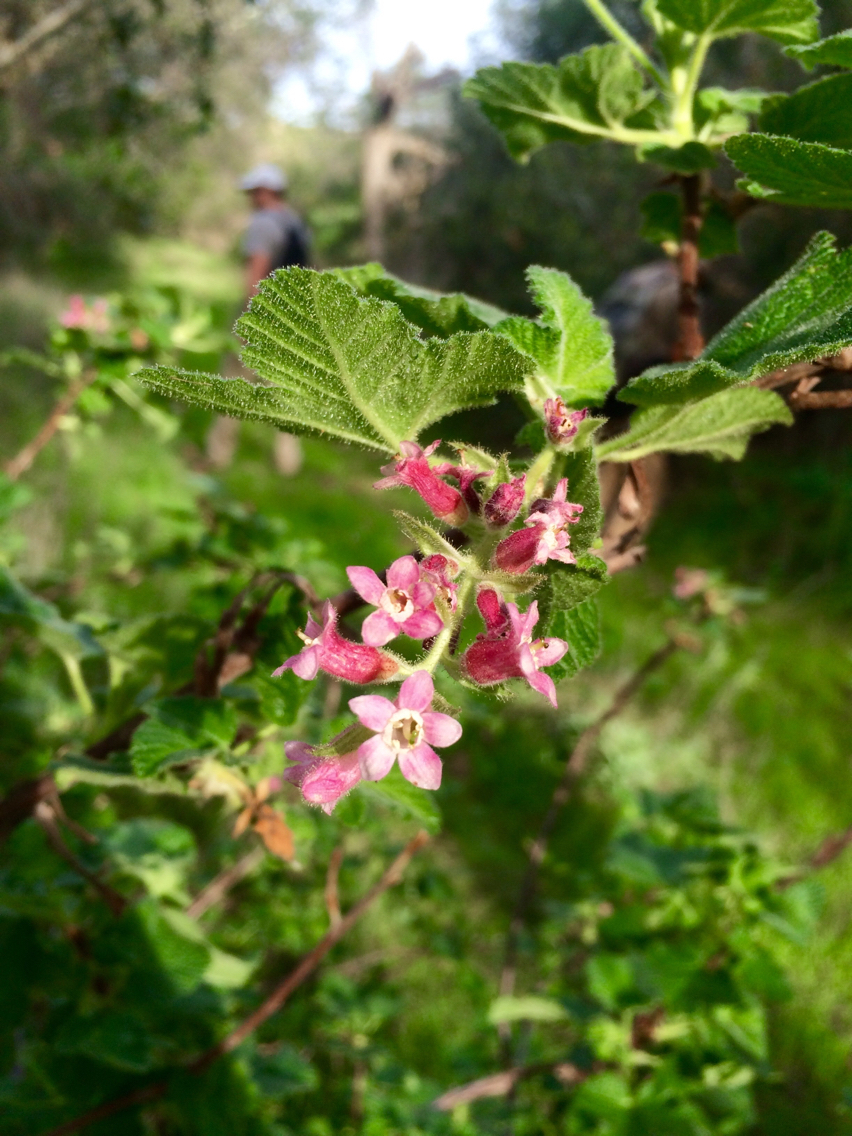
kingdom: Plantae
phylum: Tracheophyta
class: Magnoliopsida
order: Saxifragales
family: Grossulariaceae
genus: Ribes
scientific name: Ribes malvaceum
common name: Chaparral currant
